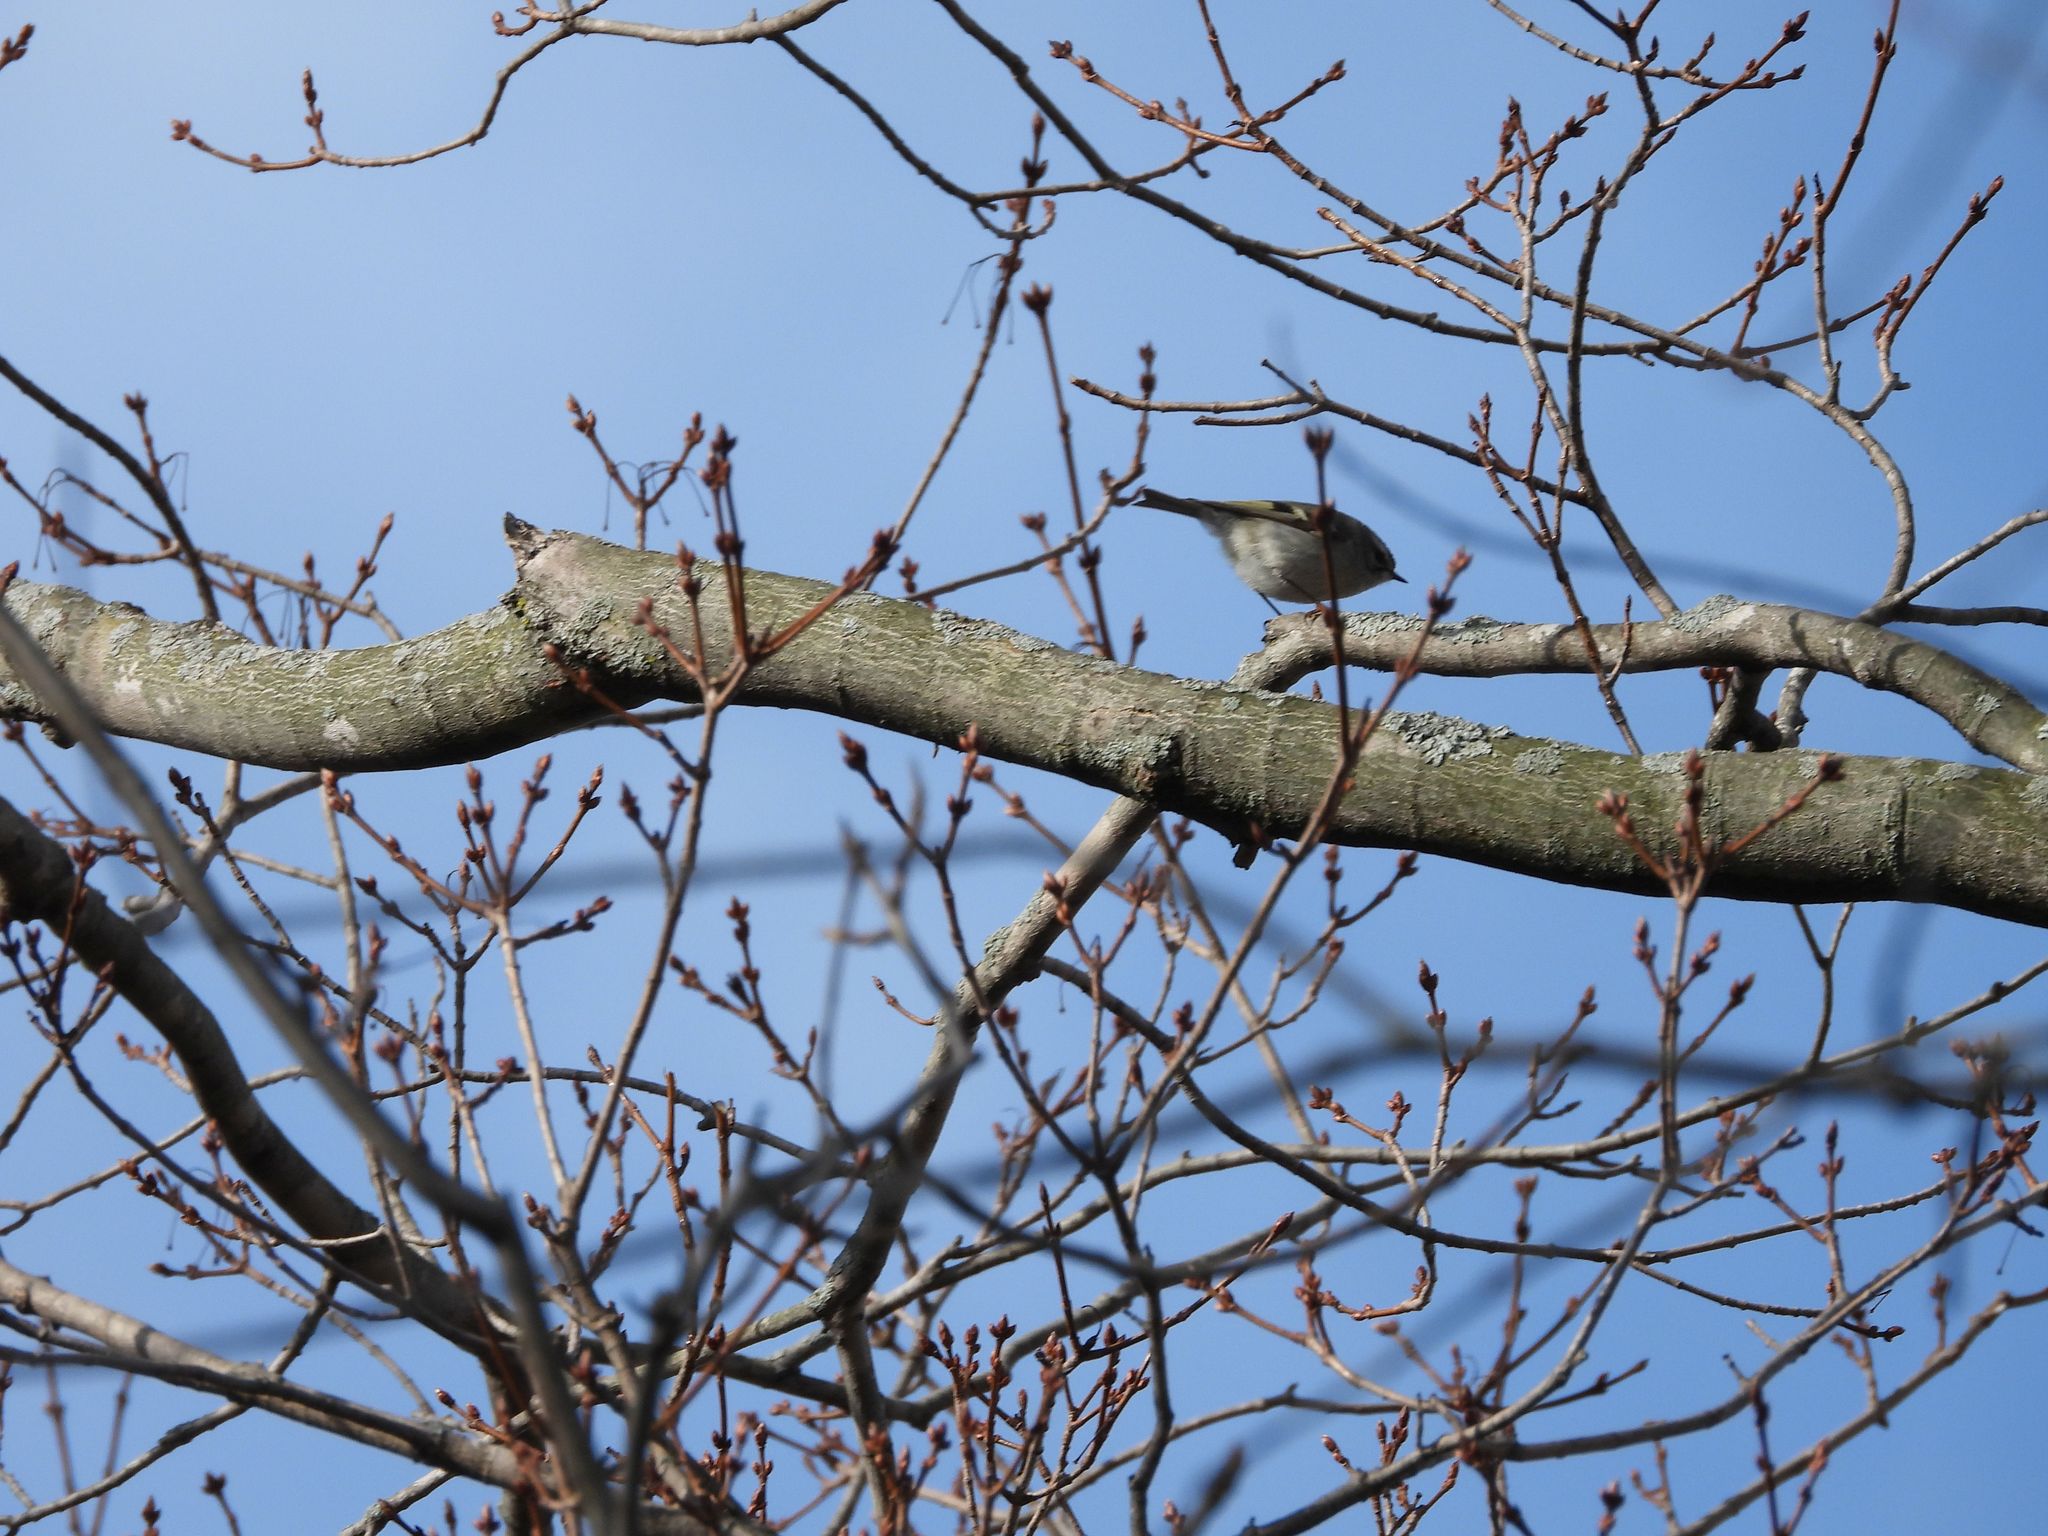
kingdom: Animalia
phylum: Chordata
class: Aves
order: Passeriformes
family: Regulidae
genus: Regulus
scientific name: Regulus satrapa
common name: Golden-crowned kinglet
